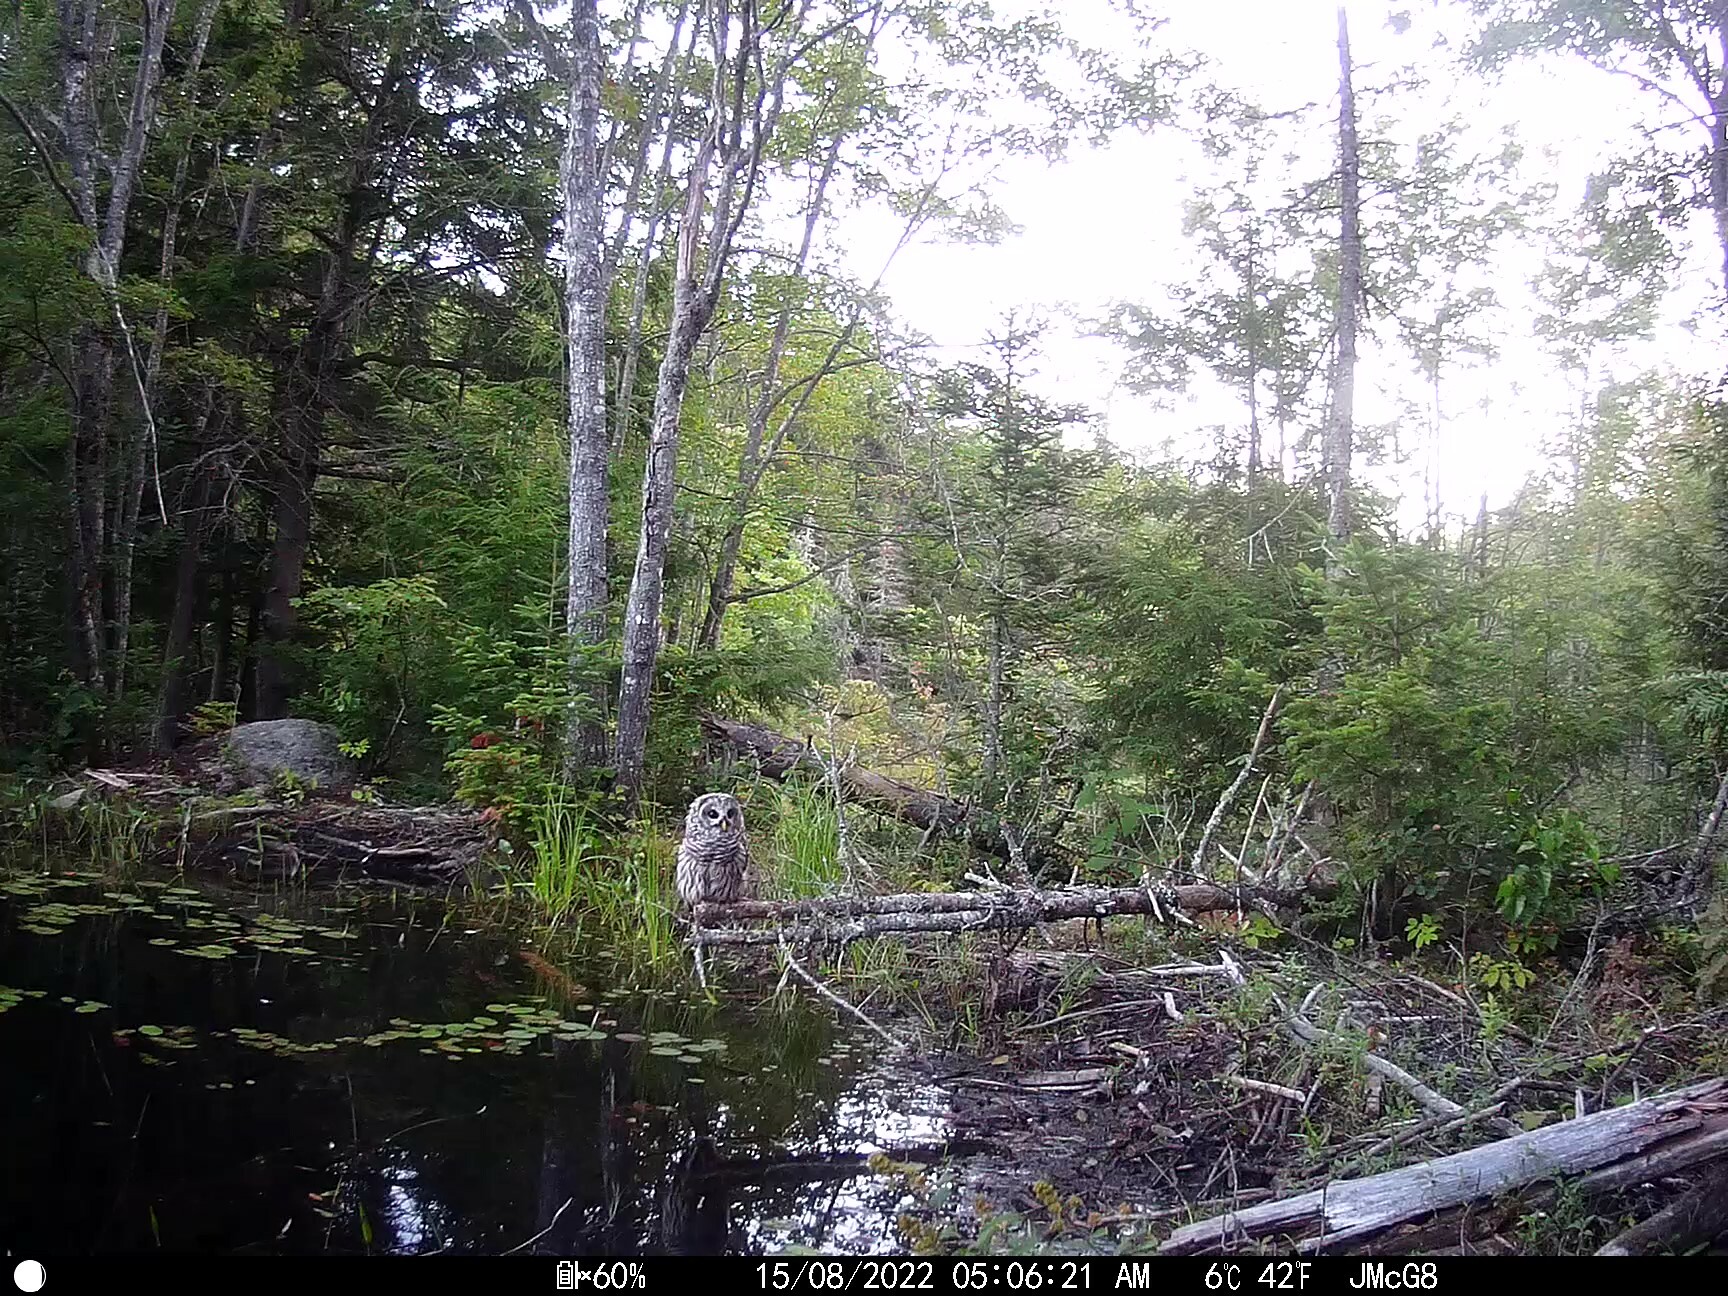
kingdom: Animalia
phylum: Chordata
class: Aves
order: Strigiformes
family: Strigidae
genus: Strix
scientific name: Strix varia
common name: Barred owl
